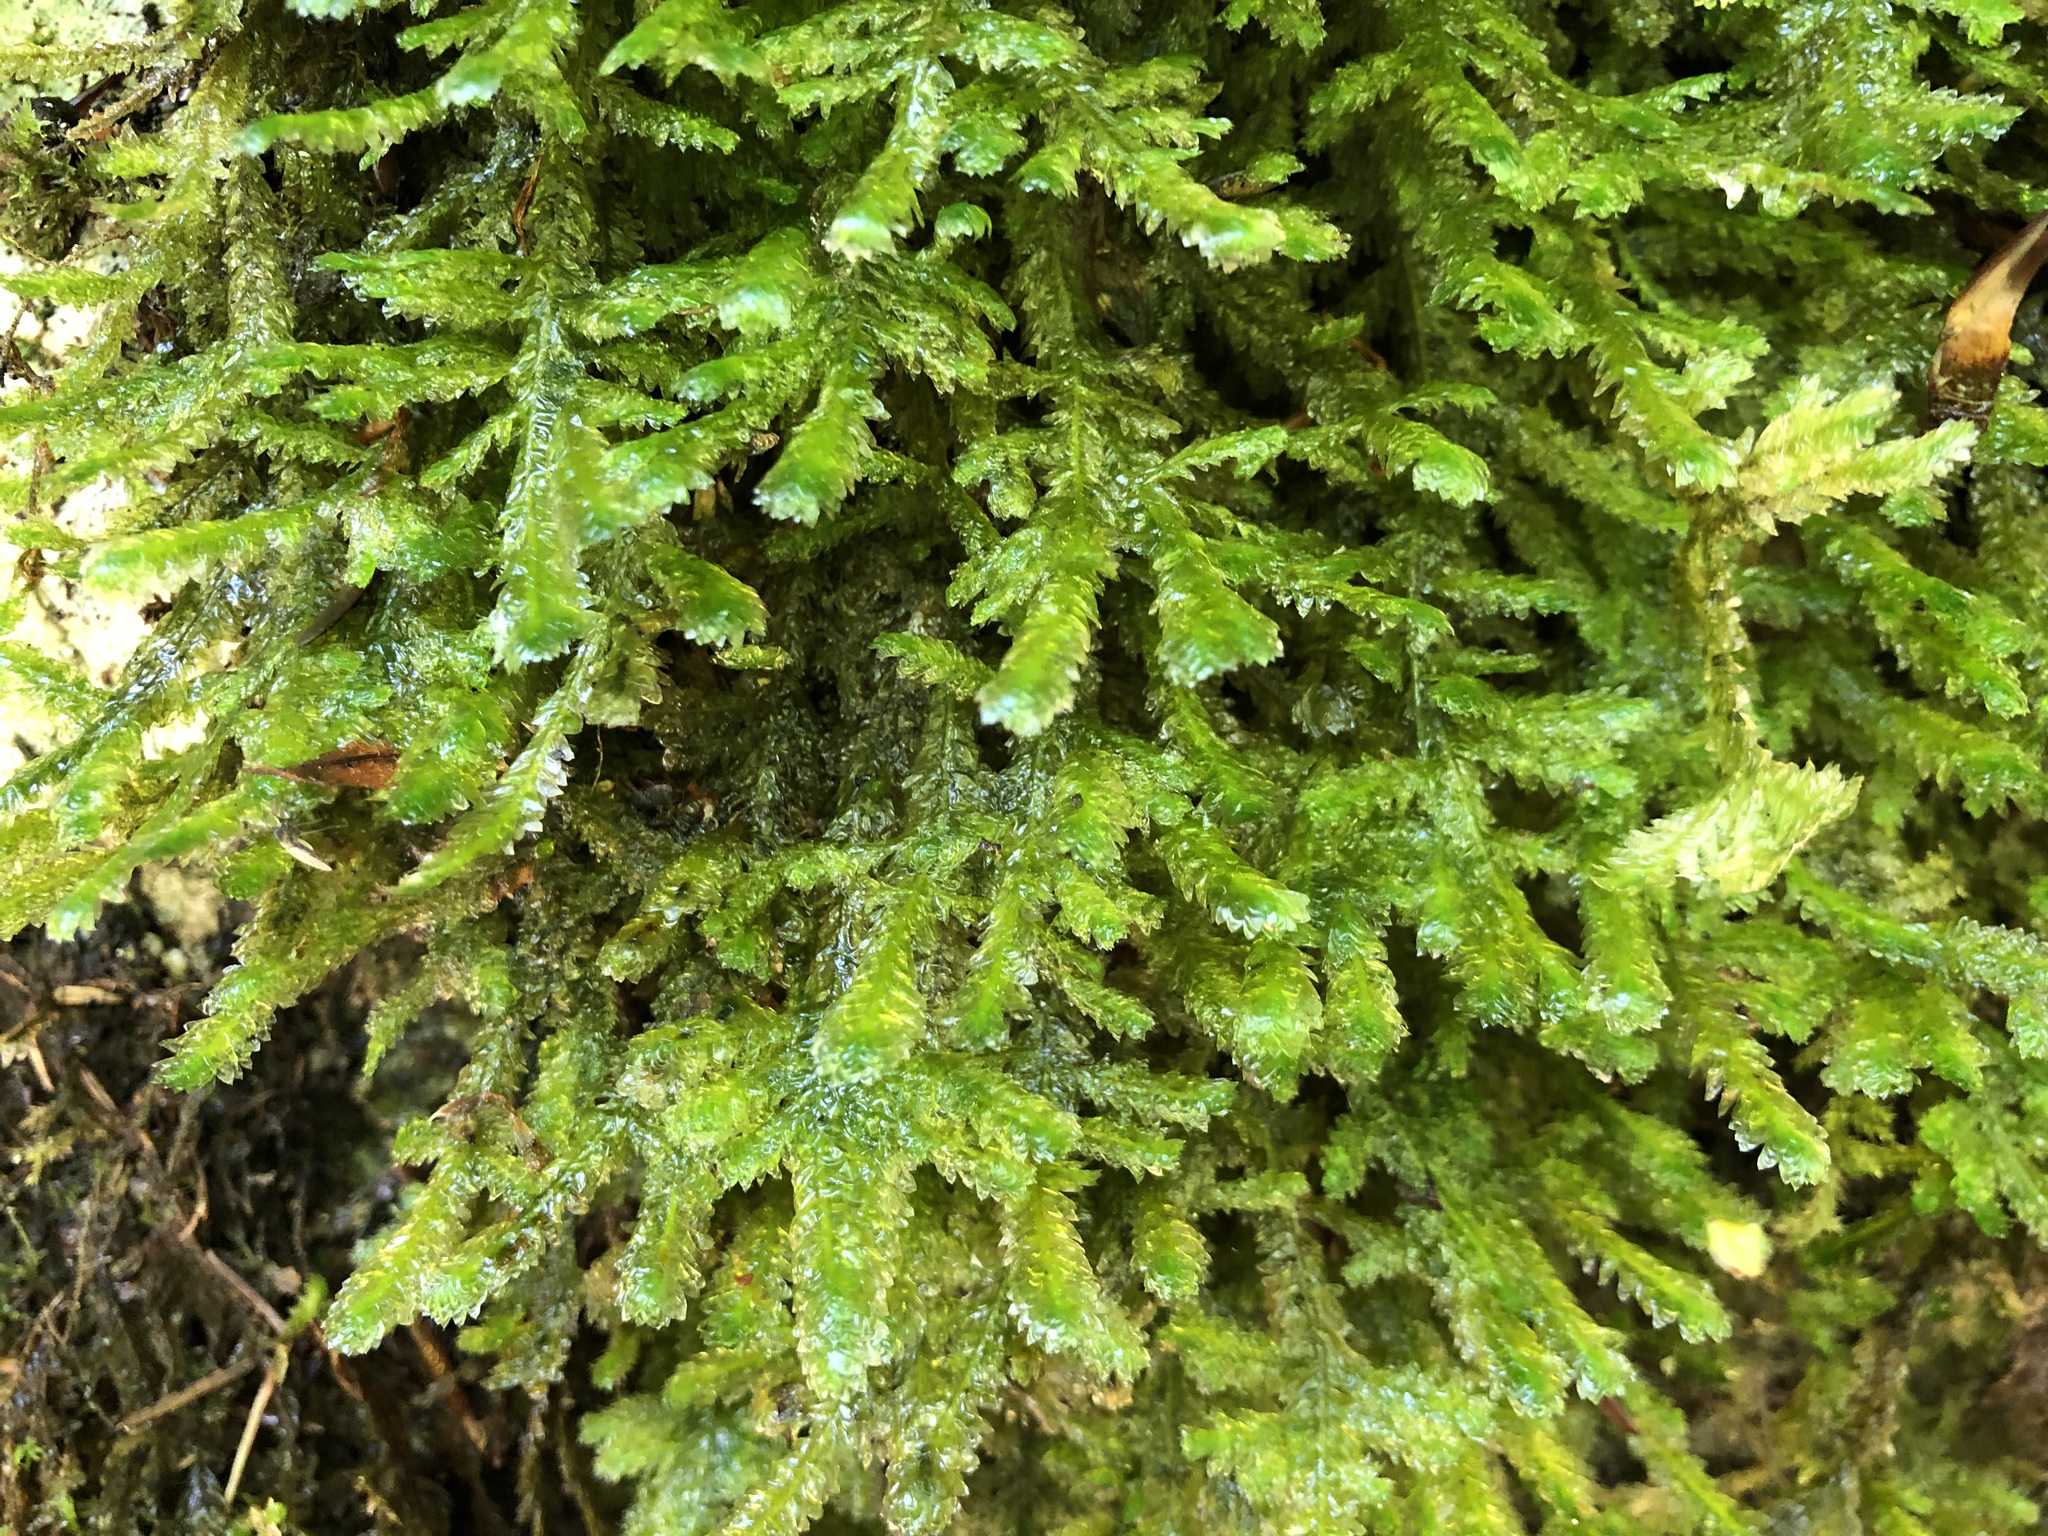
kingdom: Plantae
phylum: Bryophyta
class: Bryopsida
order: Hypnales
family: Neckeraceae
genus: Exsertotheca
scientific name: Exsertotheca crispa
